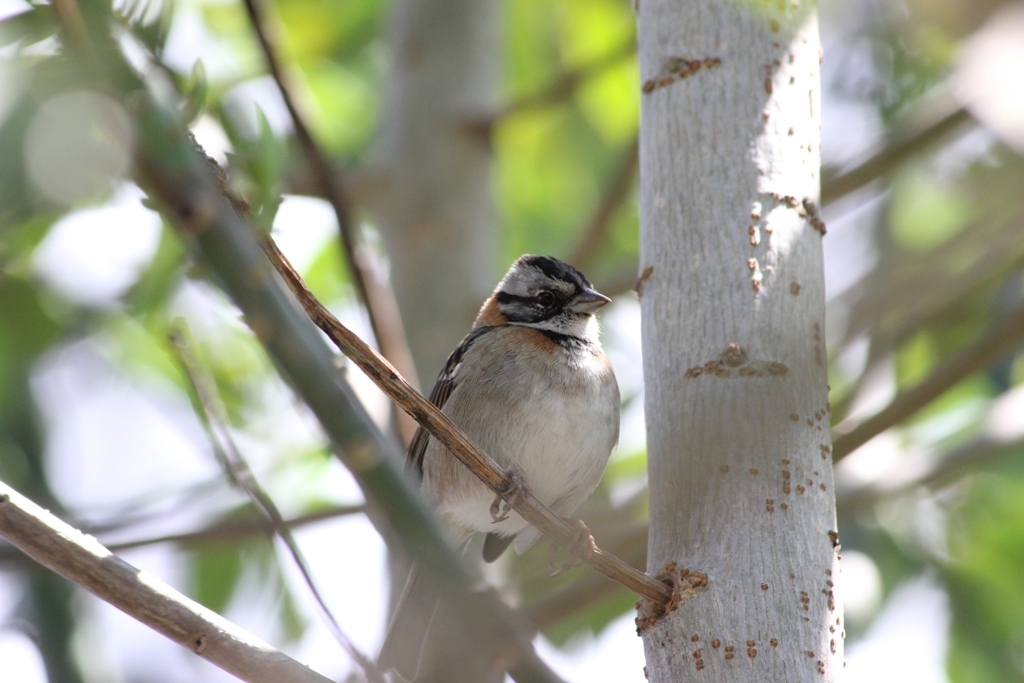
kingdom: Animalia
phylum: Chordata
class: Aves
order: Passeriformes
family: Passerellidae
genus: Zonotrichia
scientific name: Zonotrichia capensis
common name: Rufous-collared sparrow
